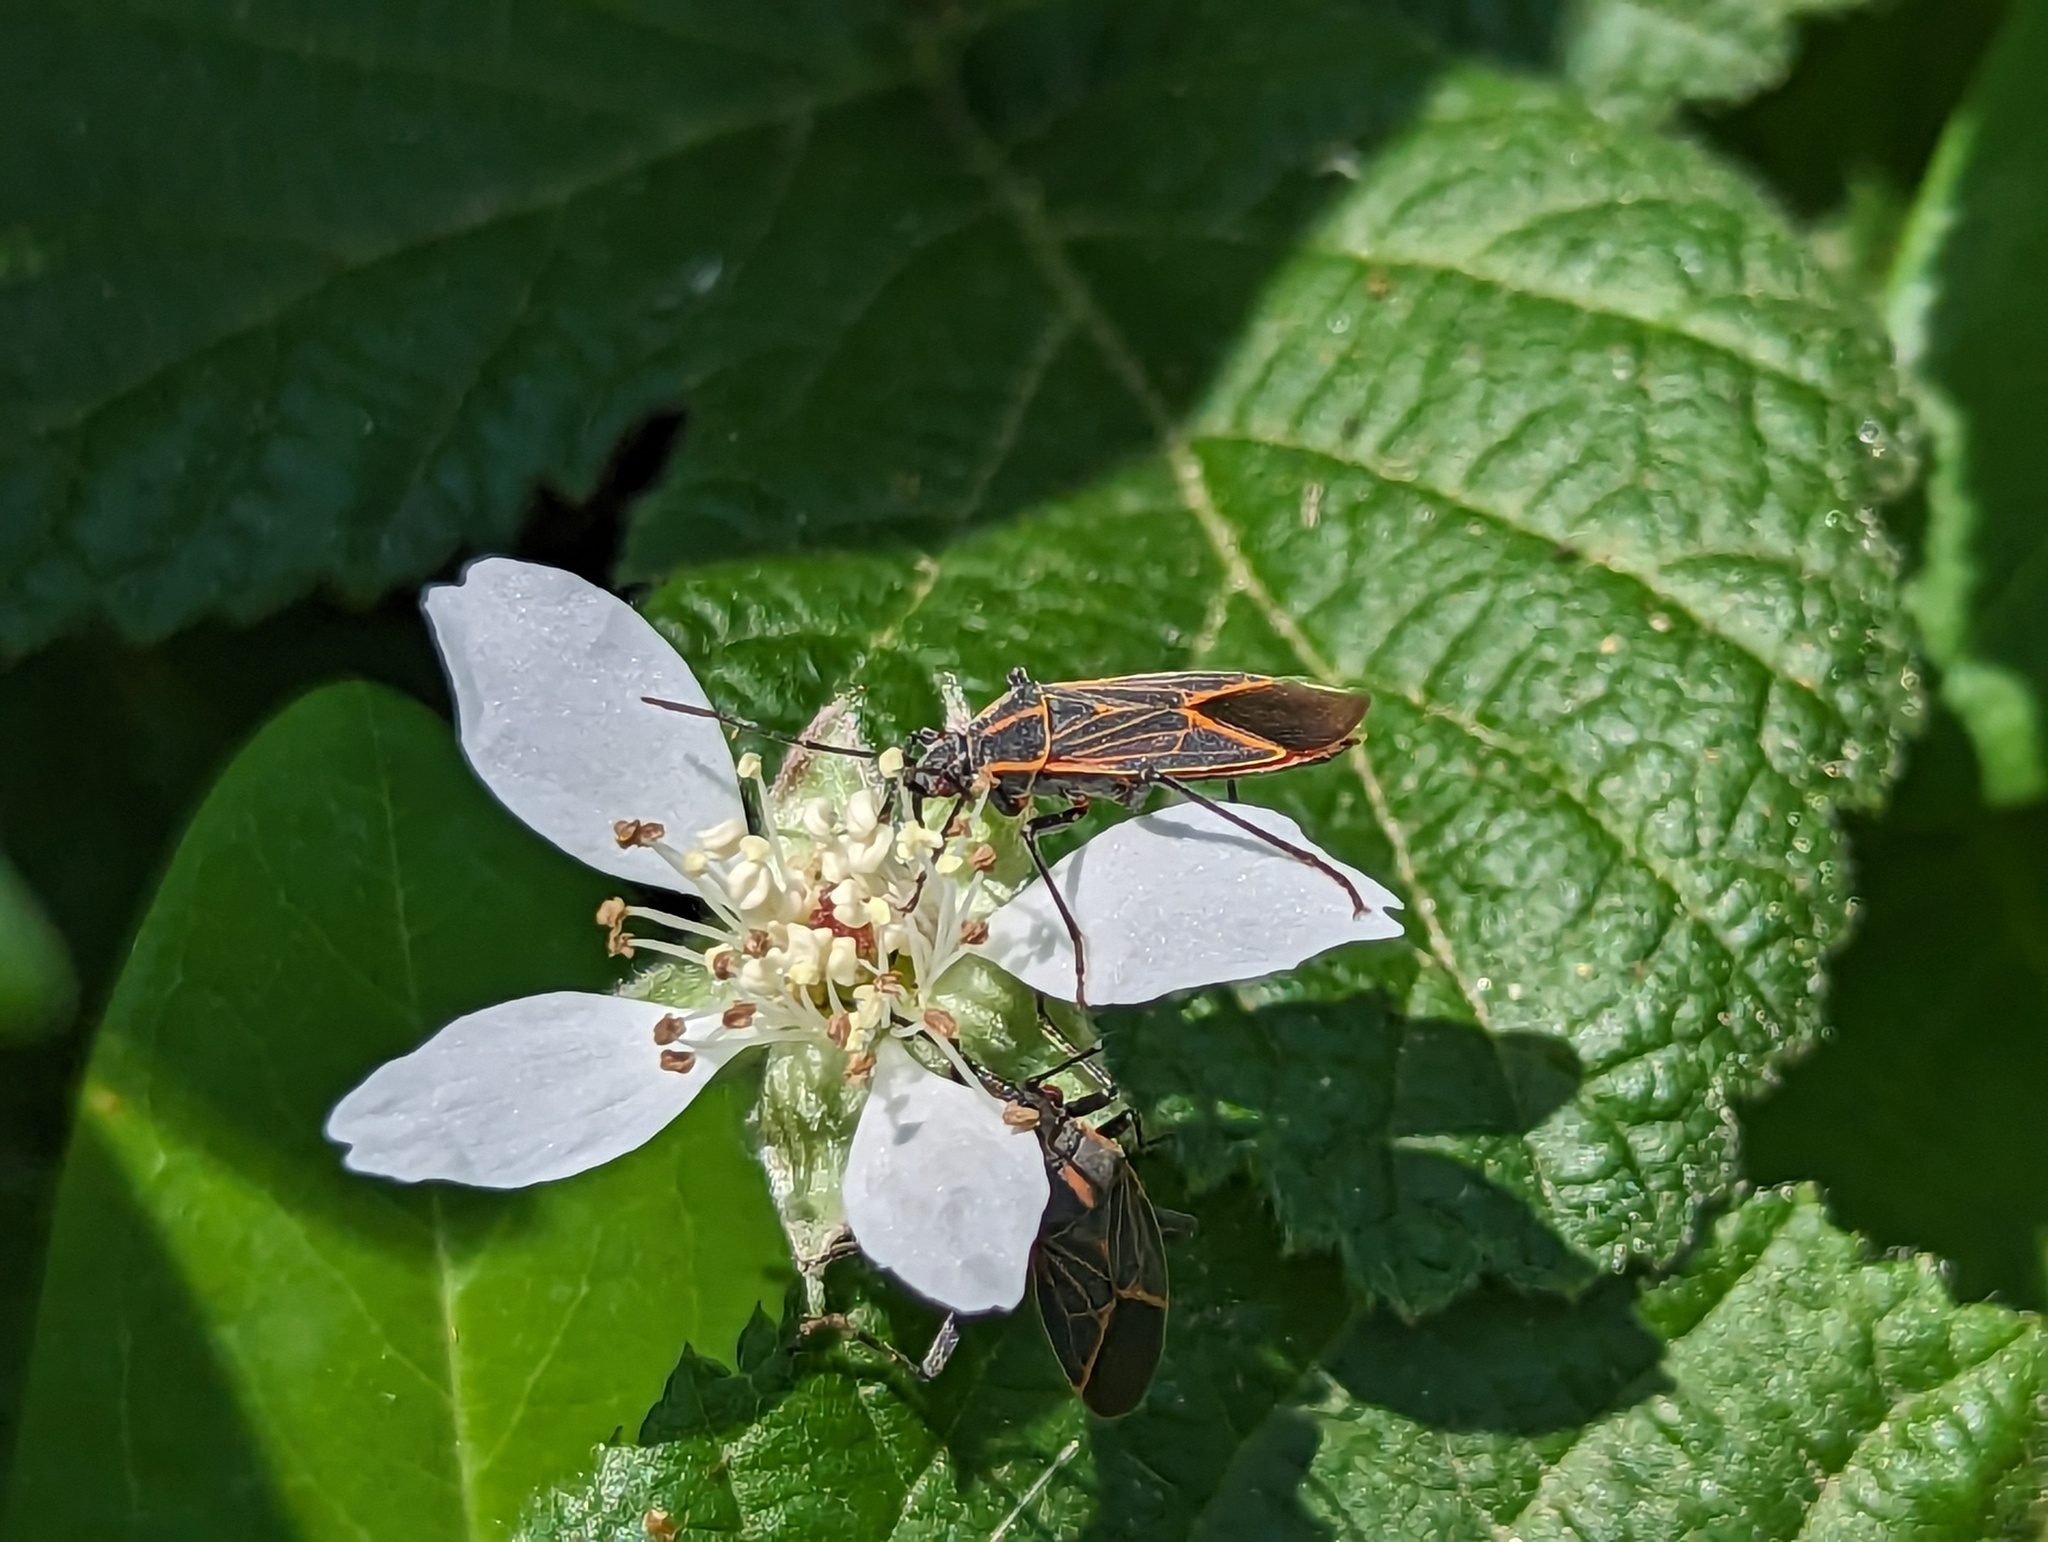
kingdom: Animalia
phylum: Arthropoda
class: Insecta
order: Hemiptera
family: Rhopalidae
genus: Boisea
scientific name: Boisea rubrolineata
